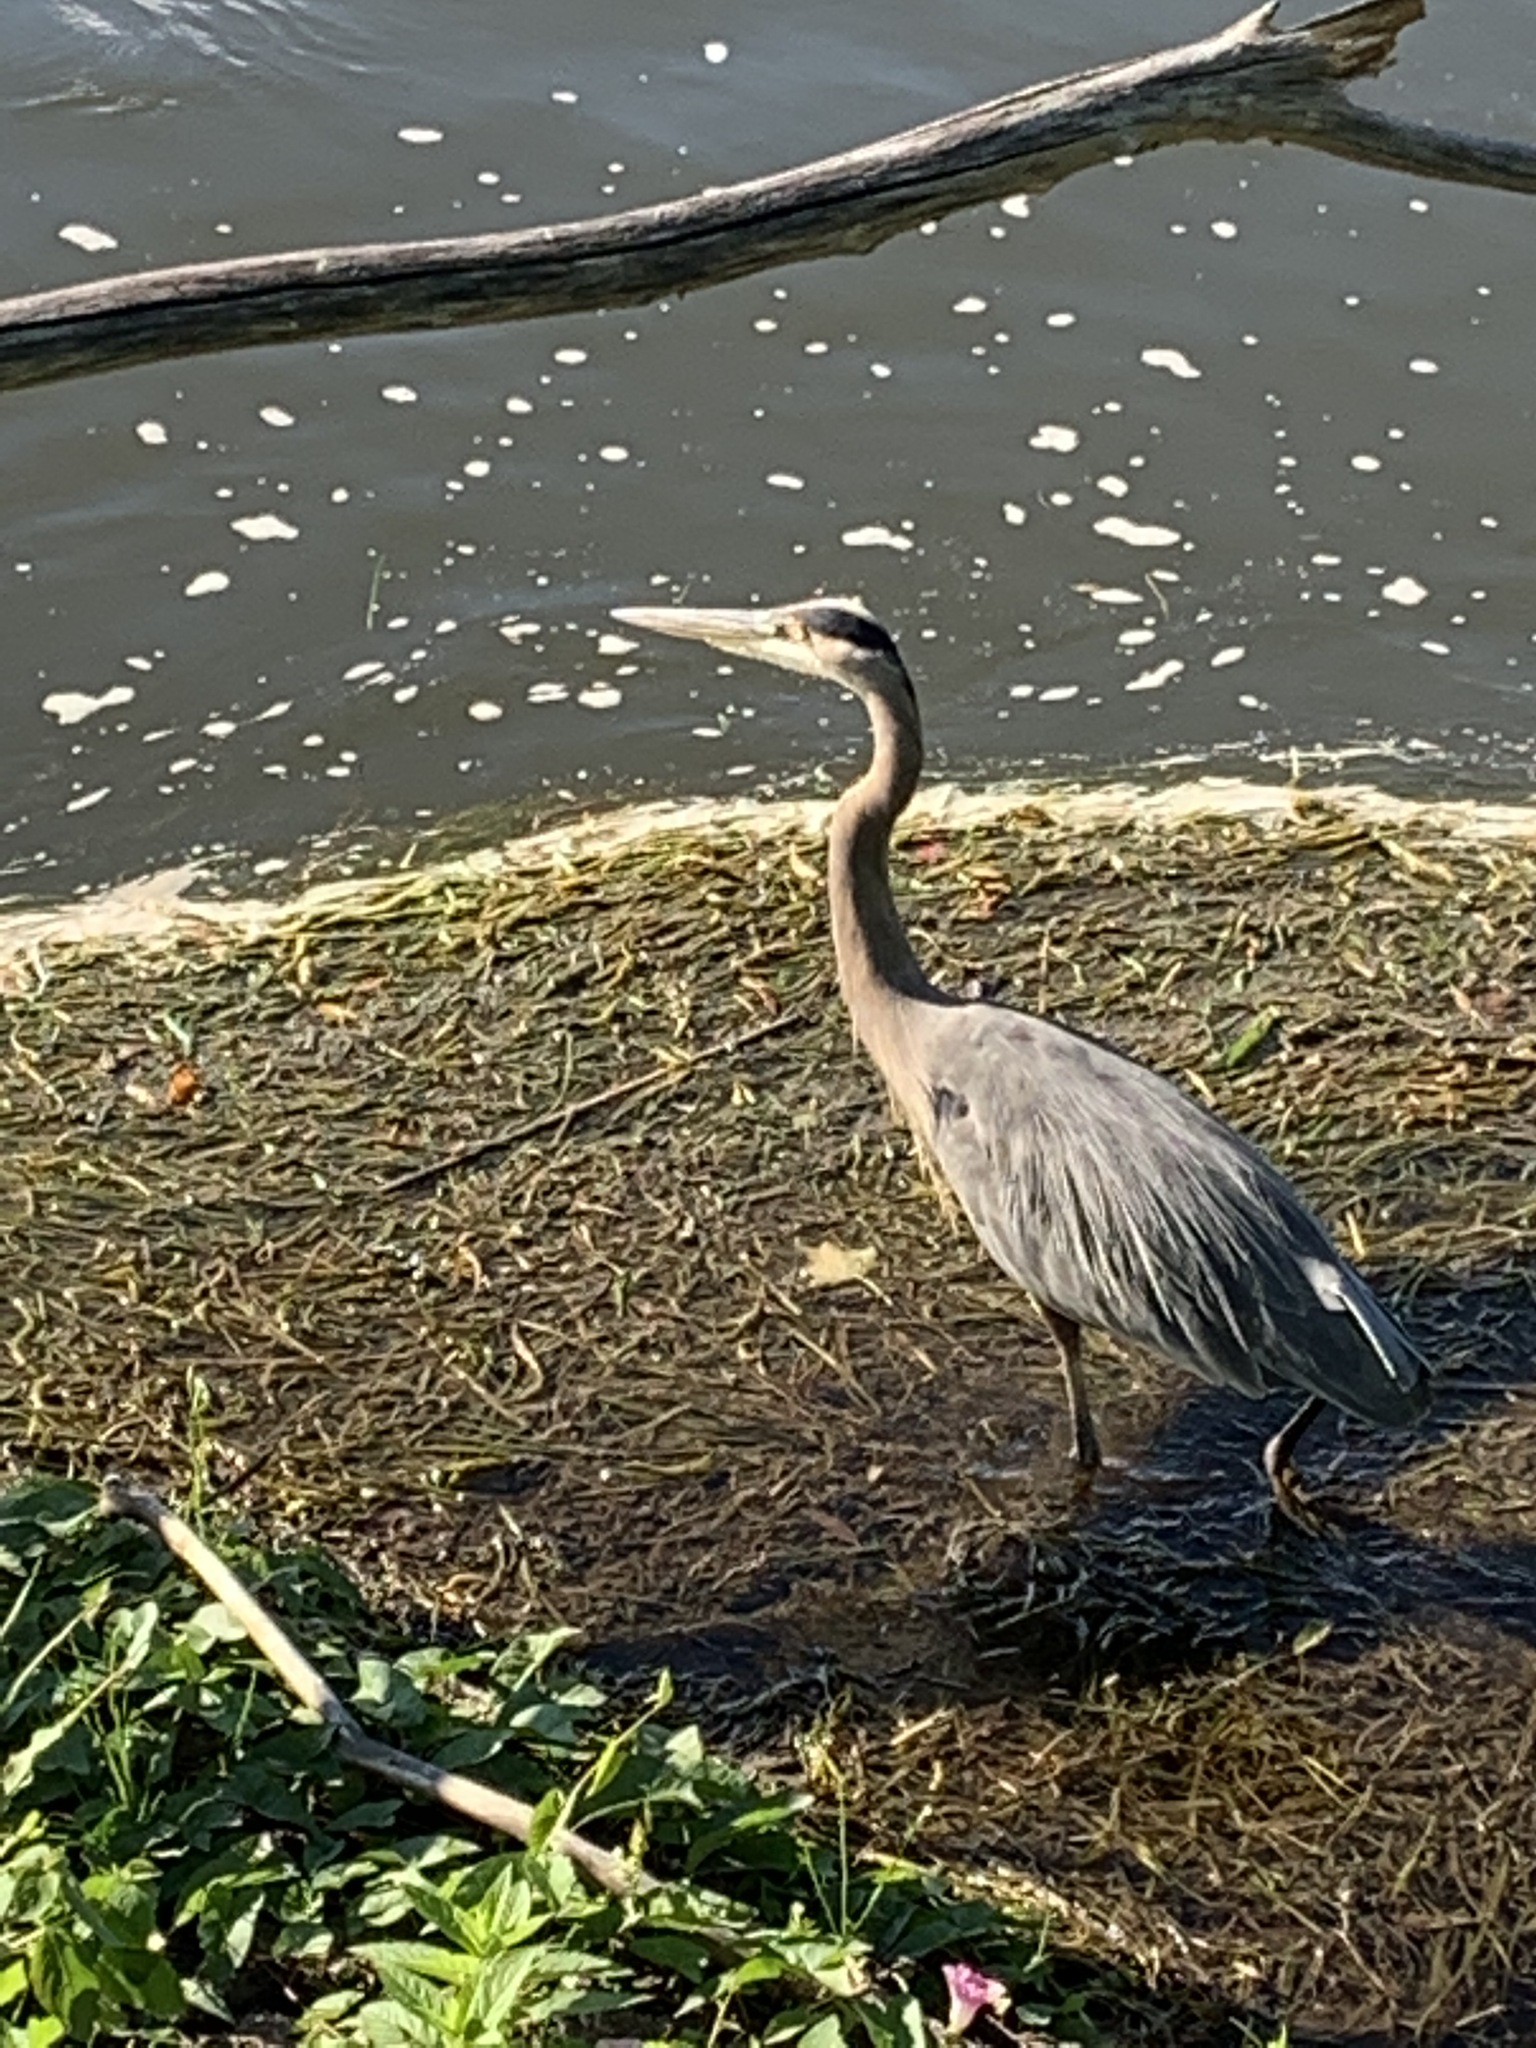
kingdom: Animalia
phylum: Chordata
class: Aves
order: Pelecaniformes
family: Ardeidae
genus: Ardea
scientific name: Ardea herodias
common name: Great blue heron
